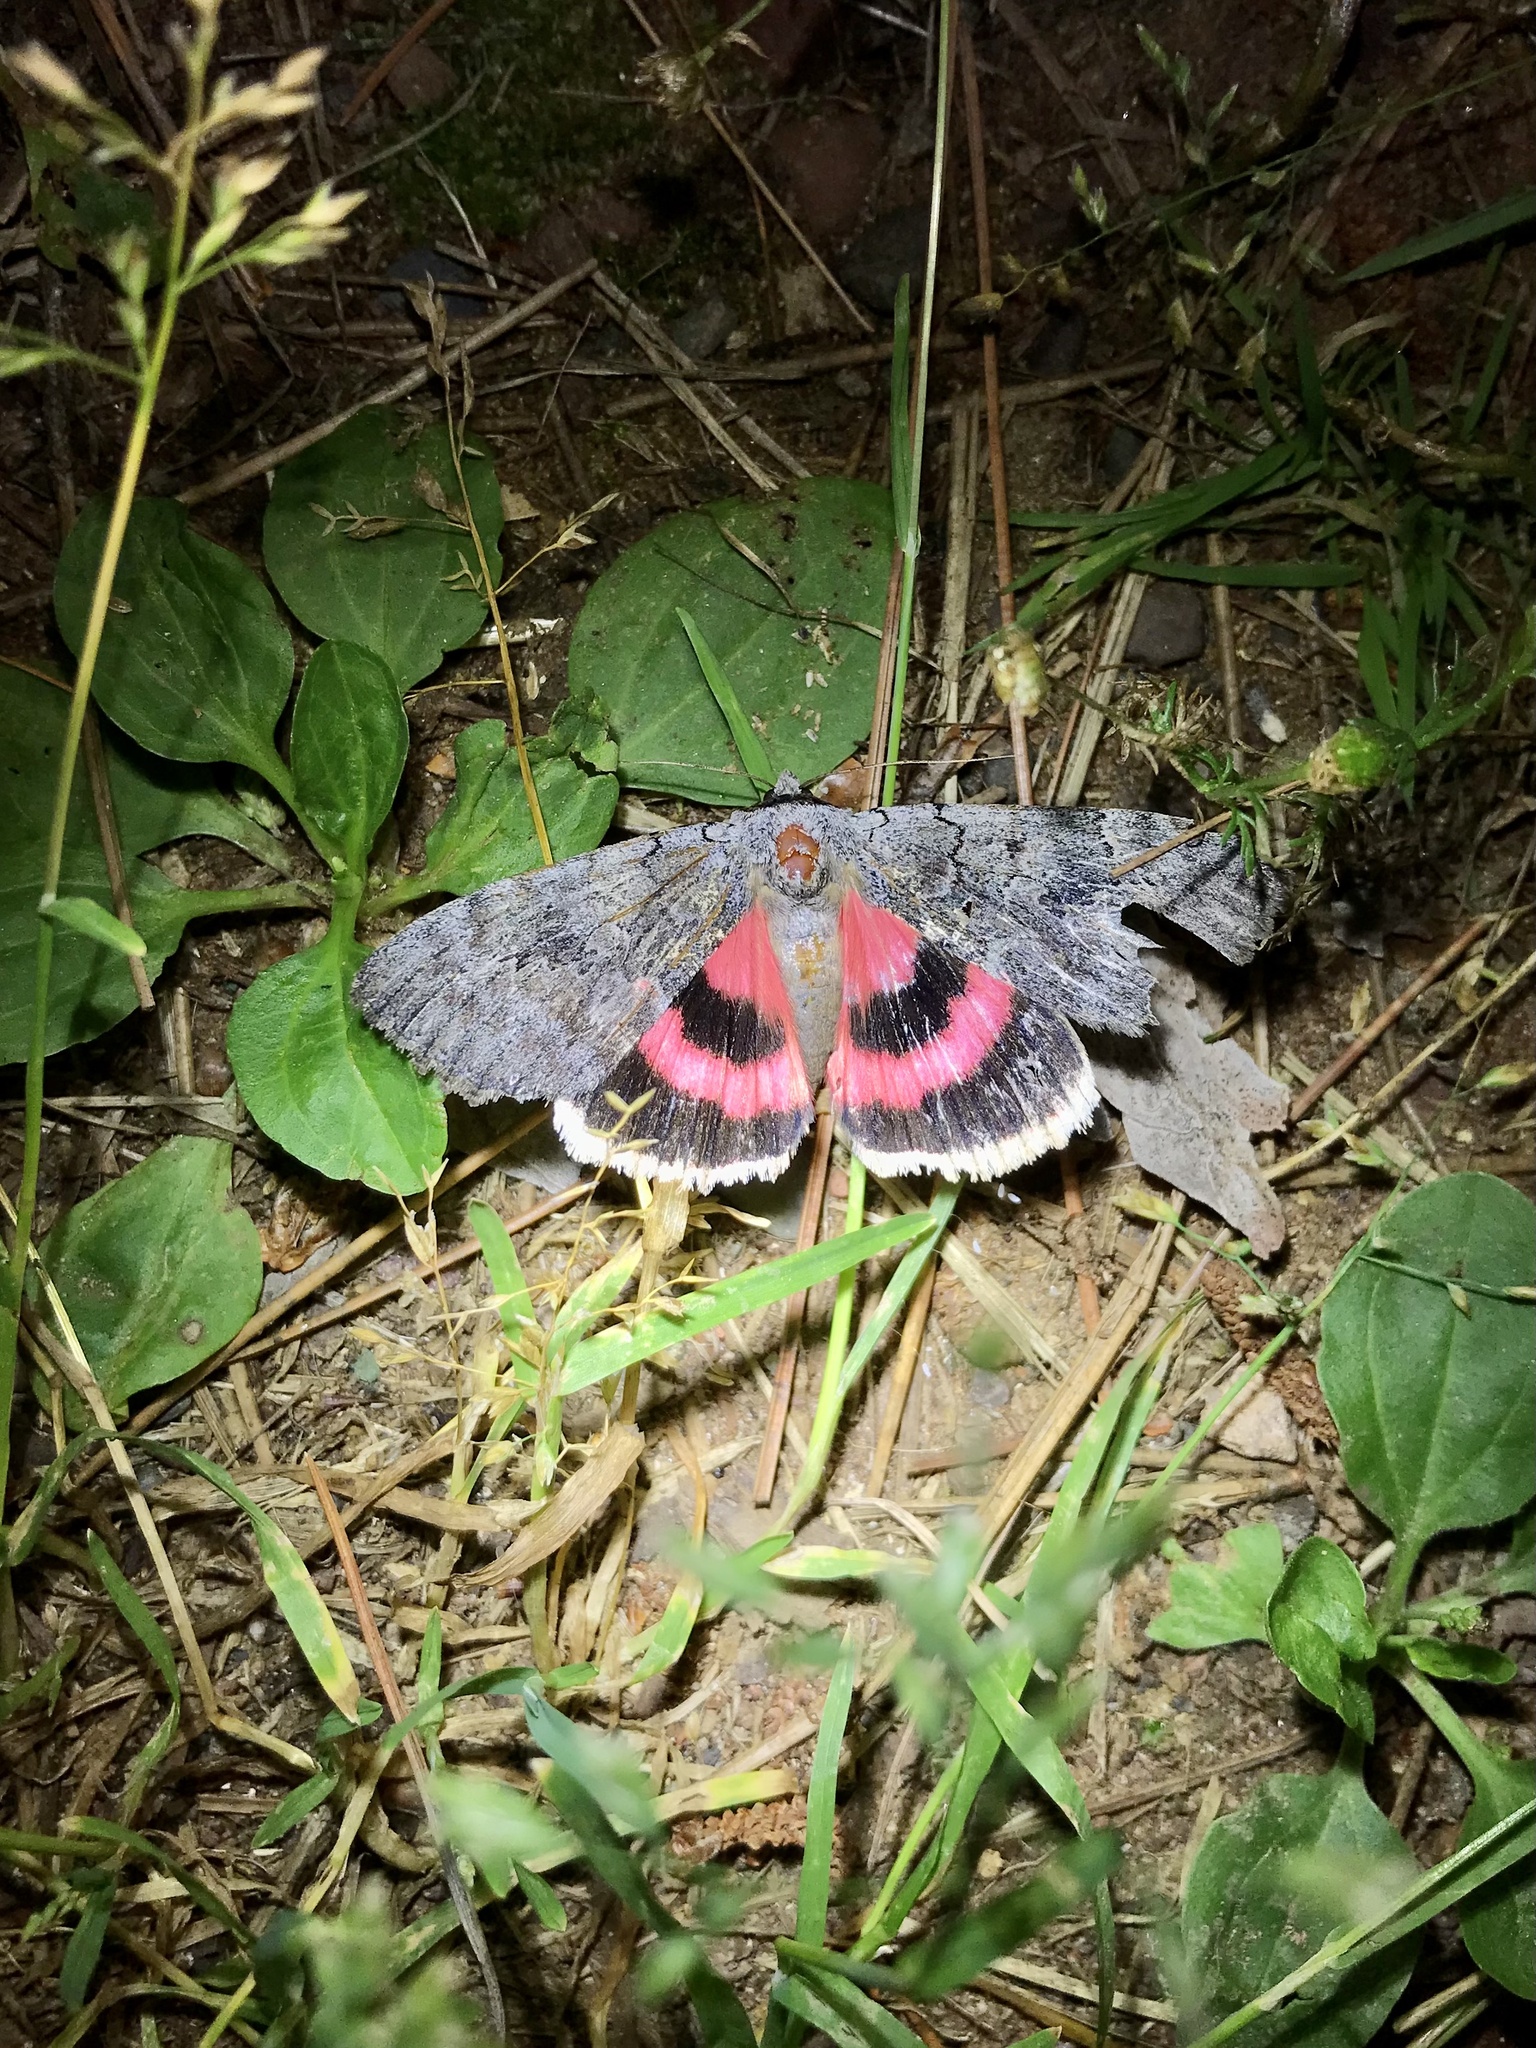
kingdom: Animalia
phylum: Arthropoda
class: Insecta
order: Lepidoptera
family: Erebidae
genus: Catocala
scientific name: Catocala concumbens
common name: Pink underwing
